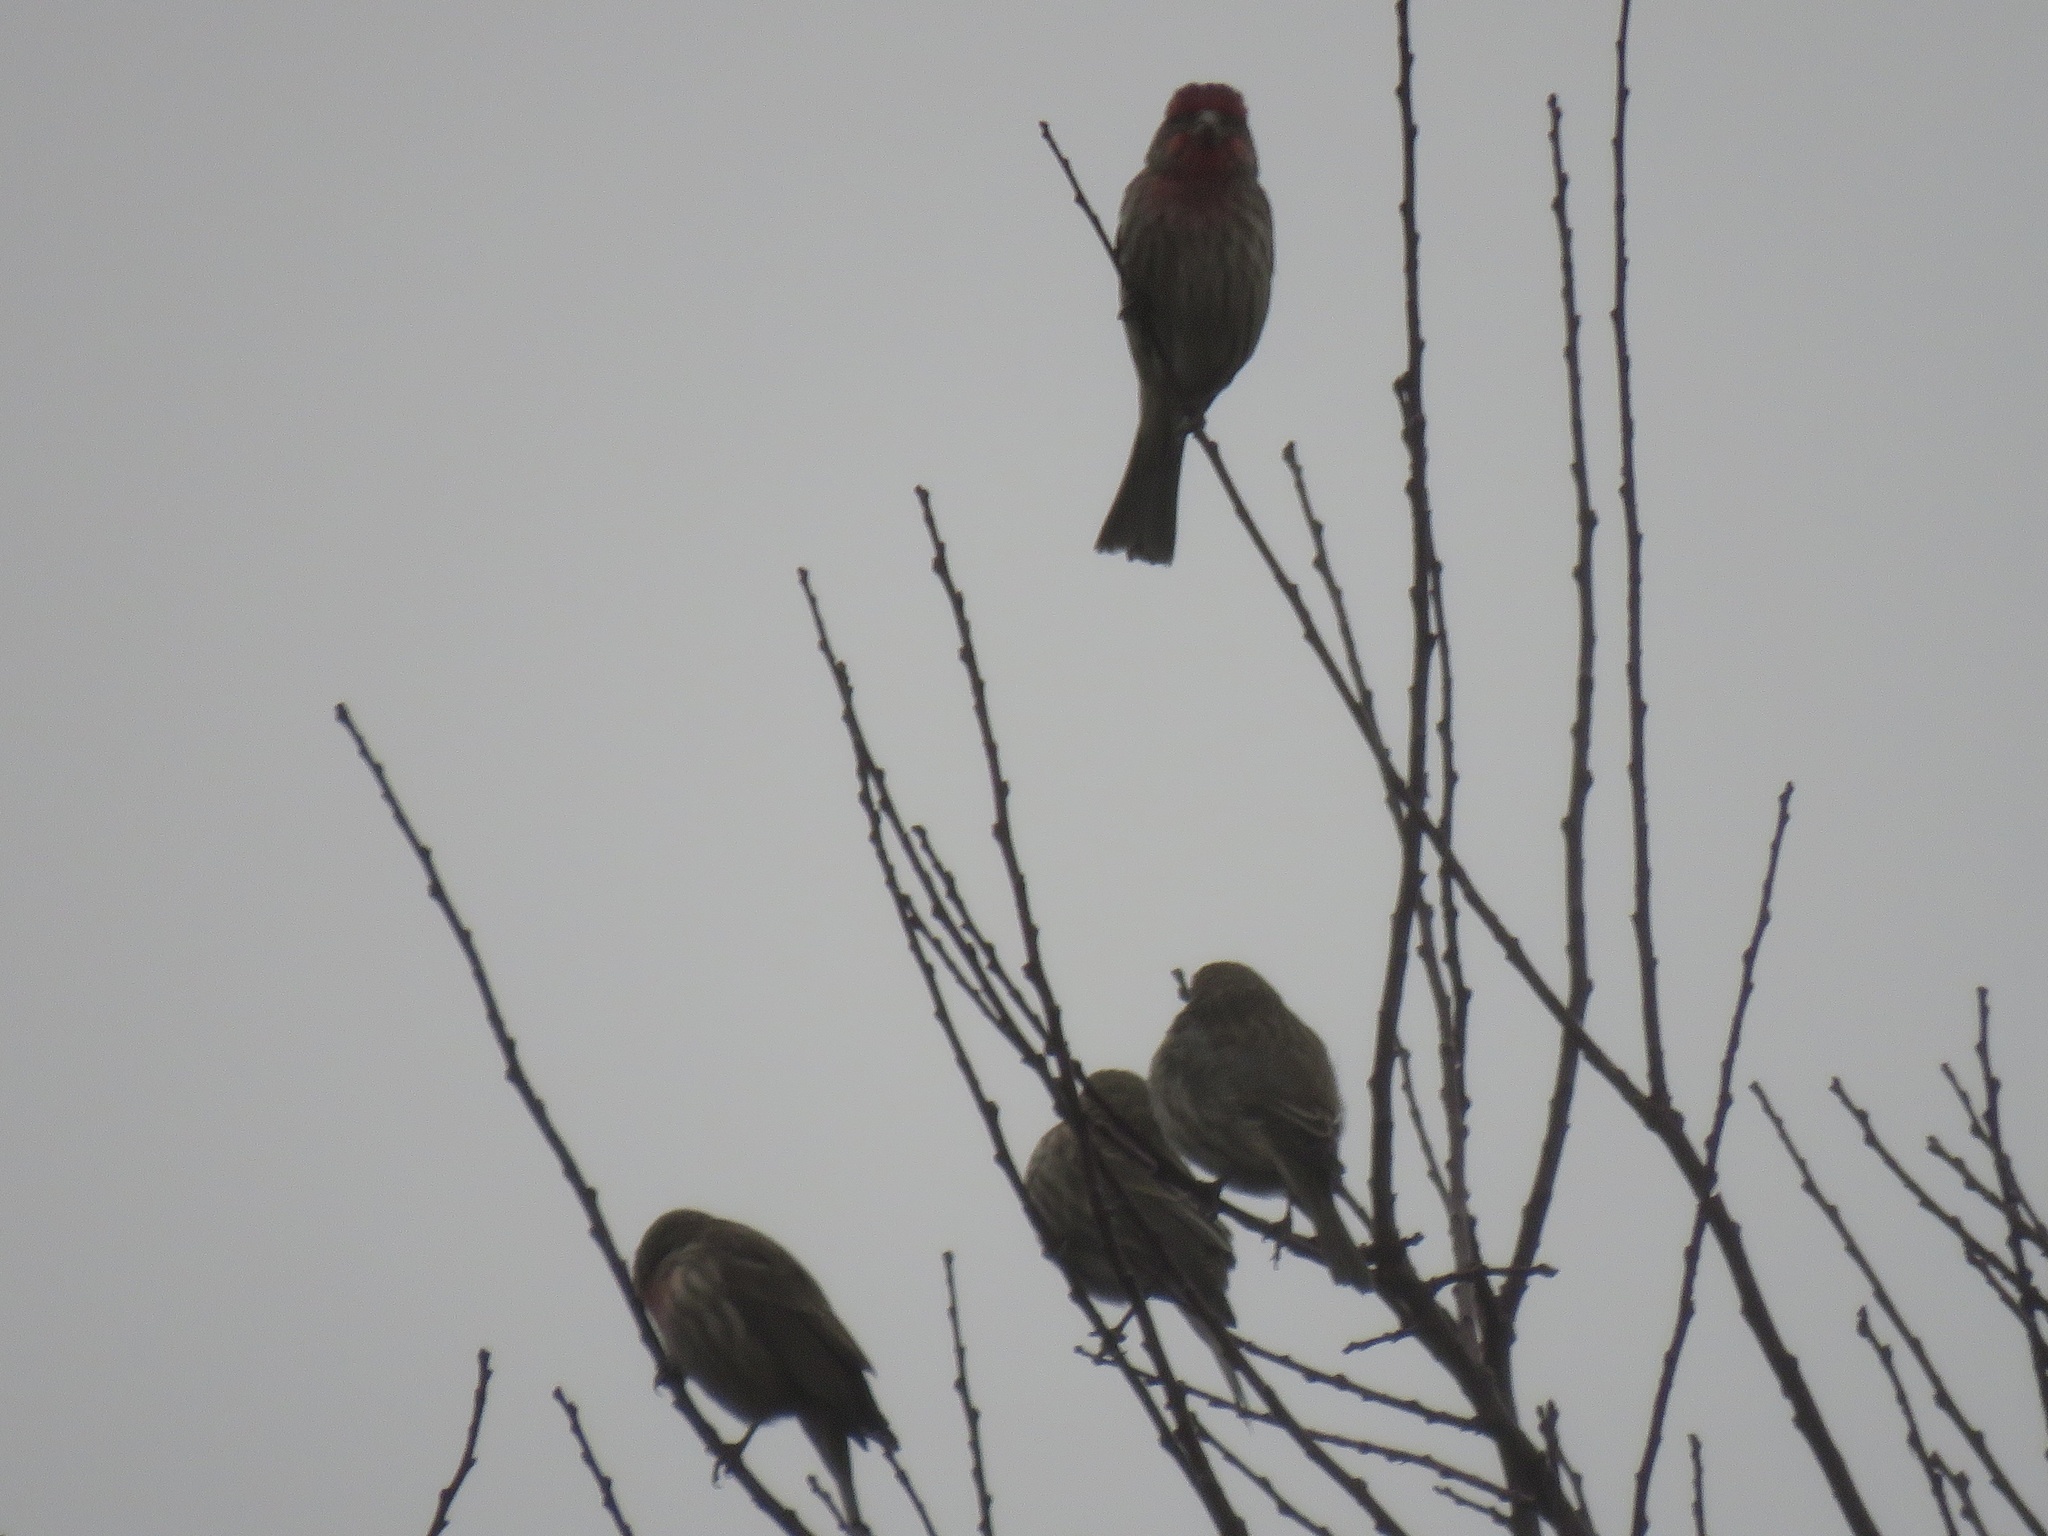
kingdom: Animalia
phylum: Chordata
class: Aves
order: Passeriformes
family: Fringillidae
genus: Haemorhous
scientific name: Haemorhous mexicanus
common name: House finch
